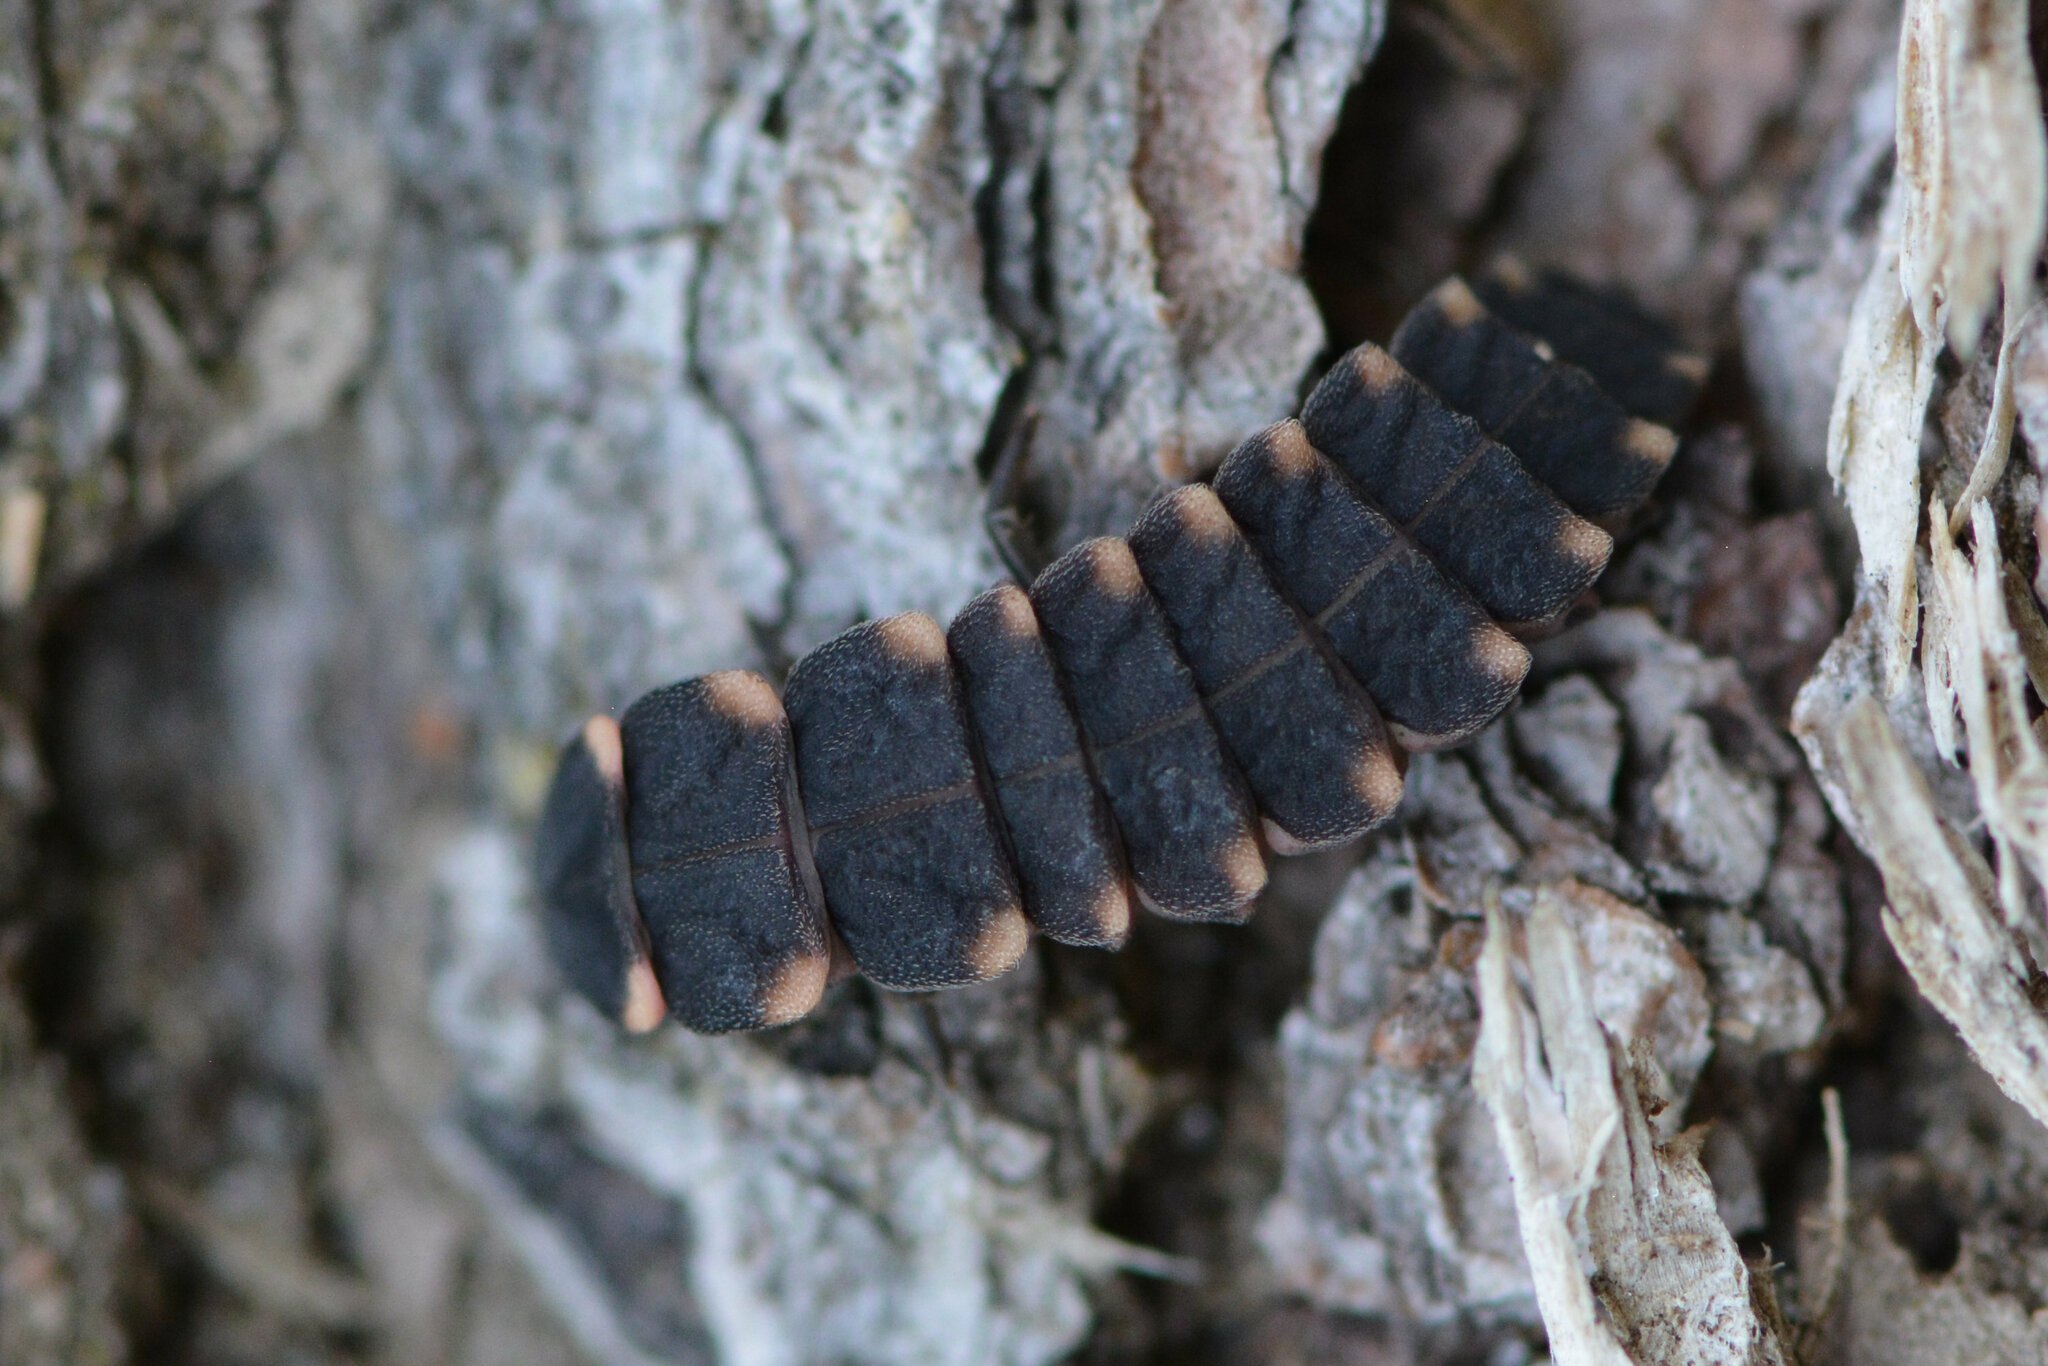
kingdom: Animalia
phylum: Arthropoda
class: Insecta
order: Coleoptera
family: Lampyridae
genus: Lampyris
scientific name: Lampyris noctiluca
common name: Glow-worm
